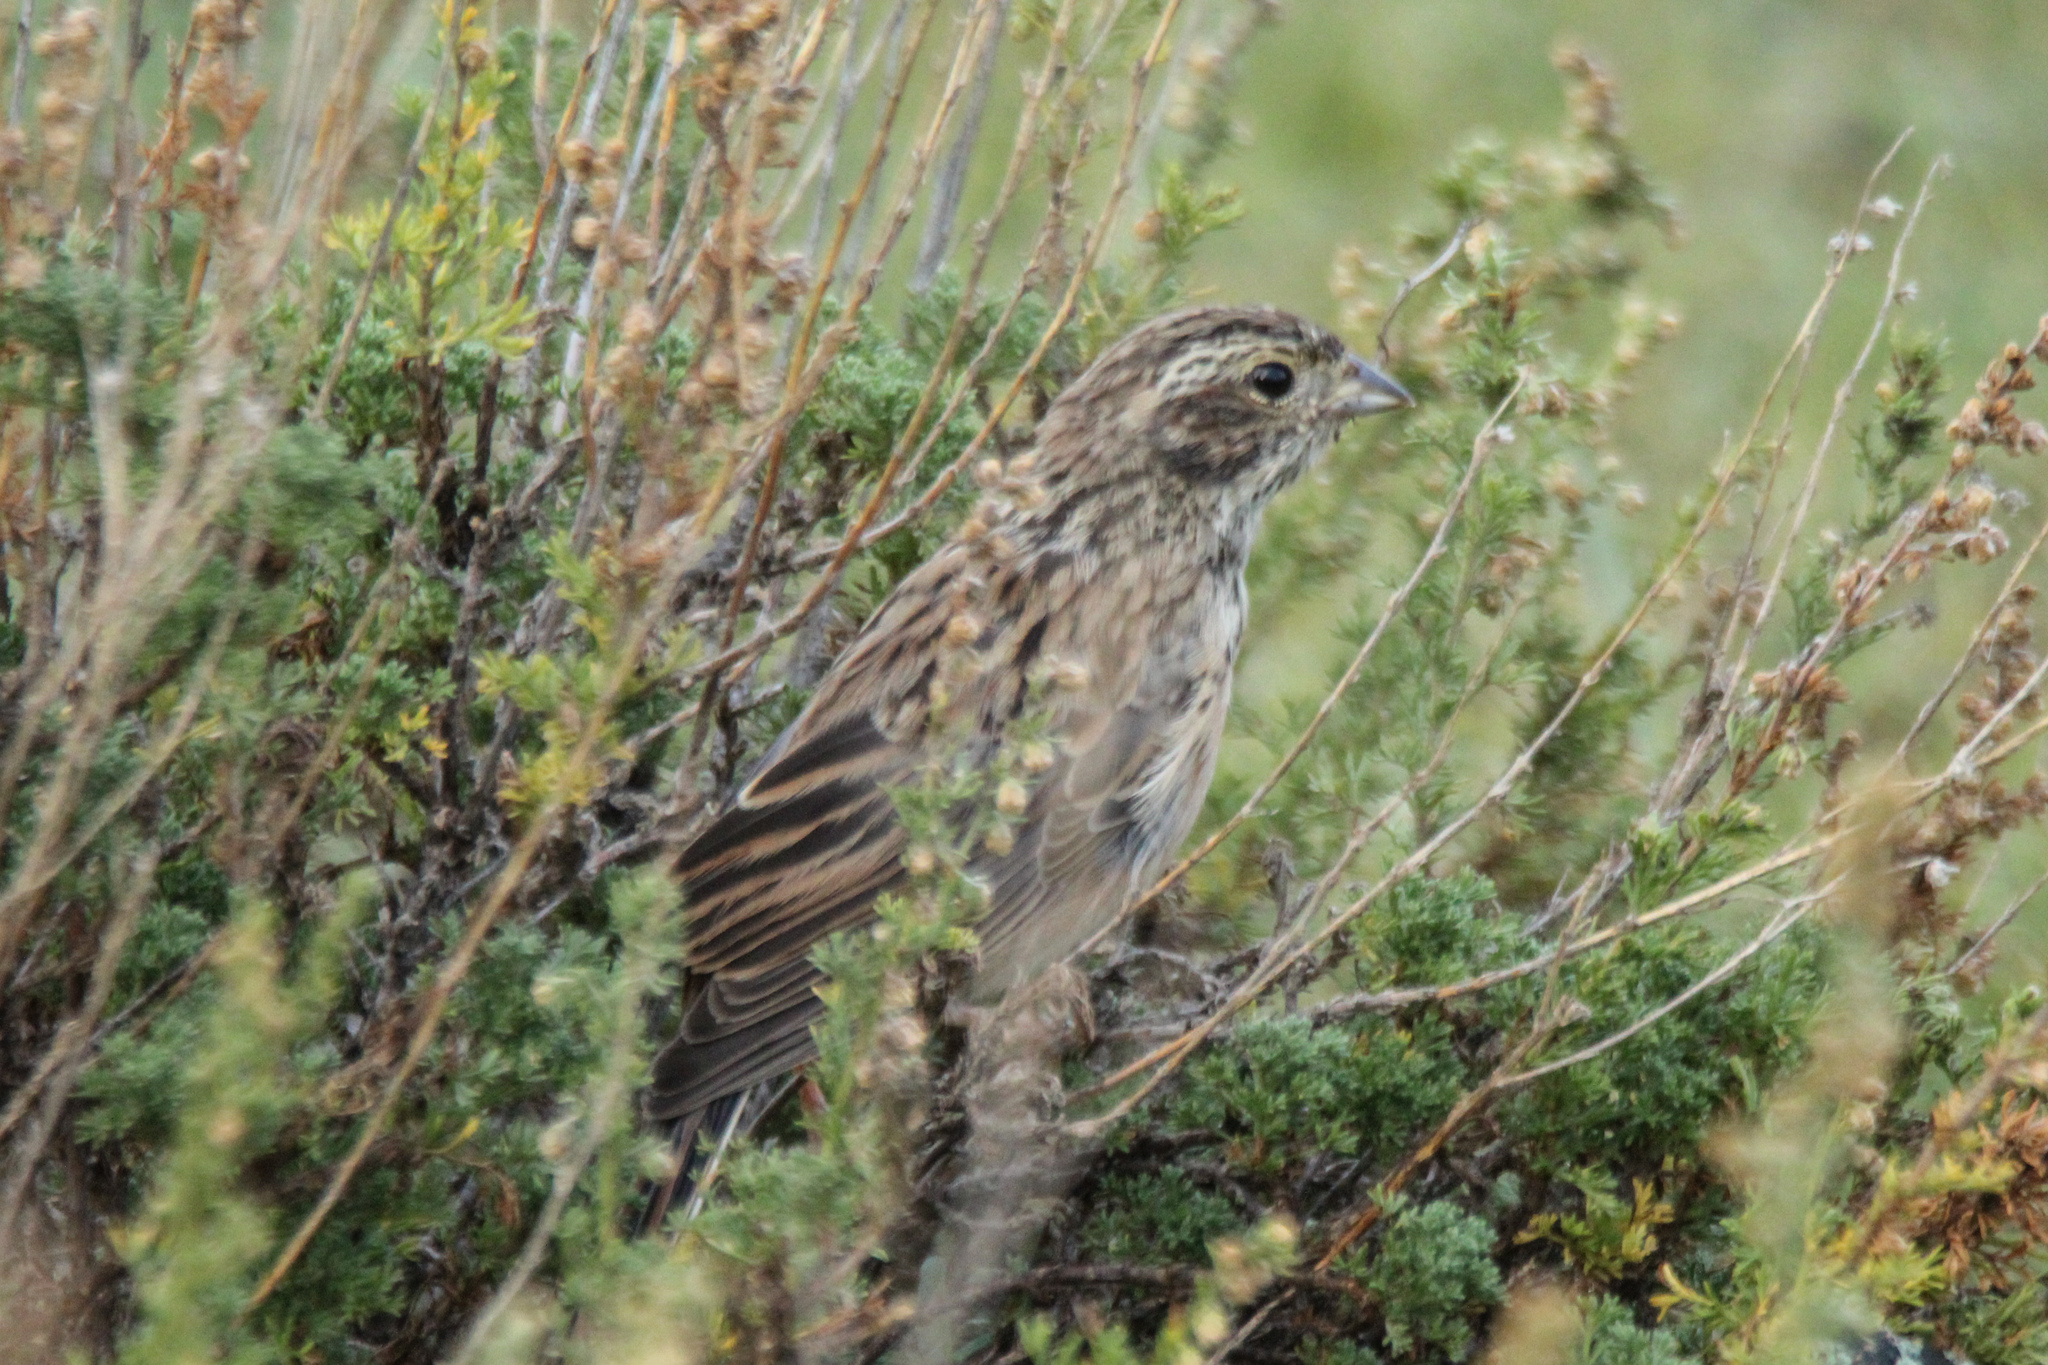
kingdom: Animalia
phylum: Chordata
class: Aves
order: Passeriformes
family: Emberizidae
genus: Emberiza
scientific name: Emberiza cioides
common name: Meadow bunting
